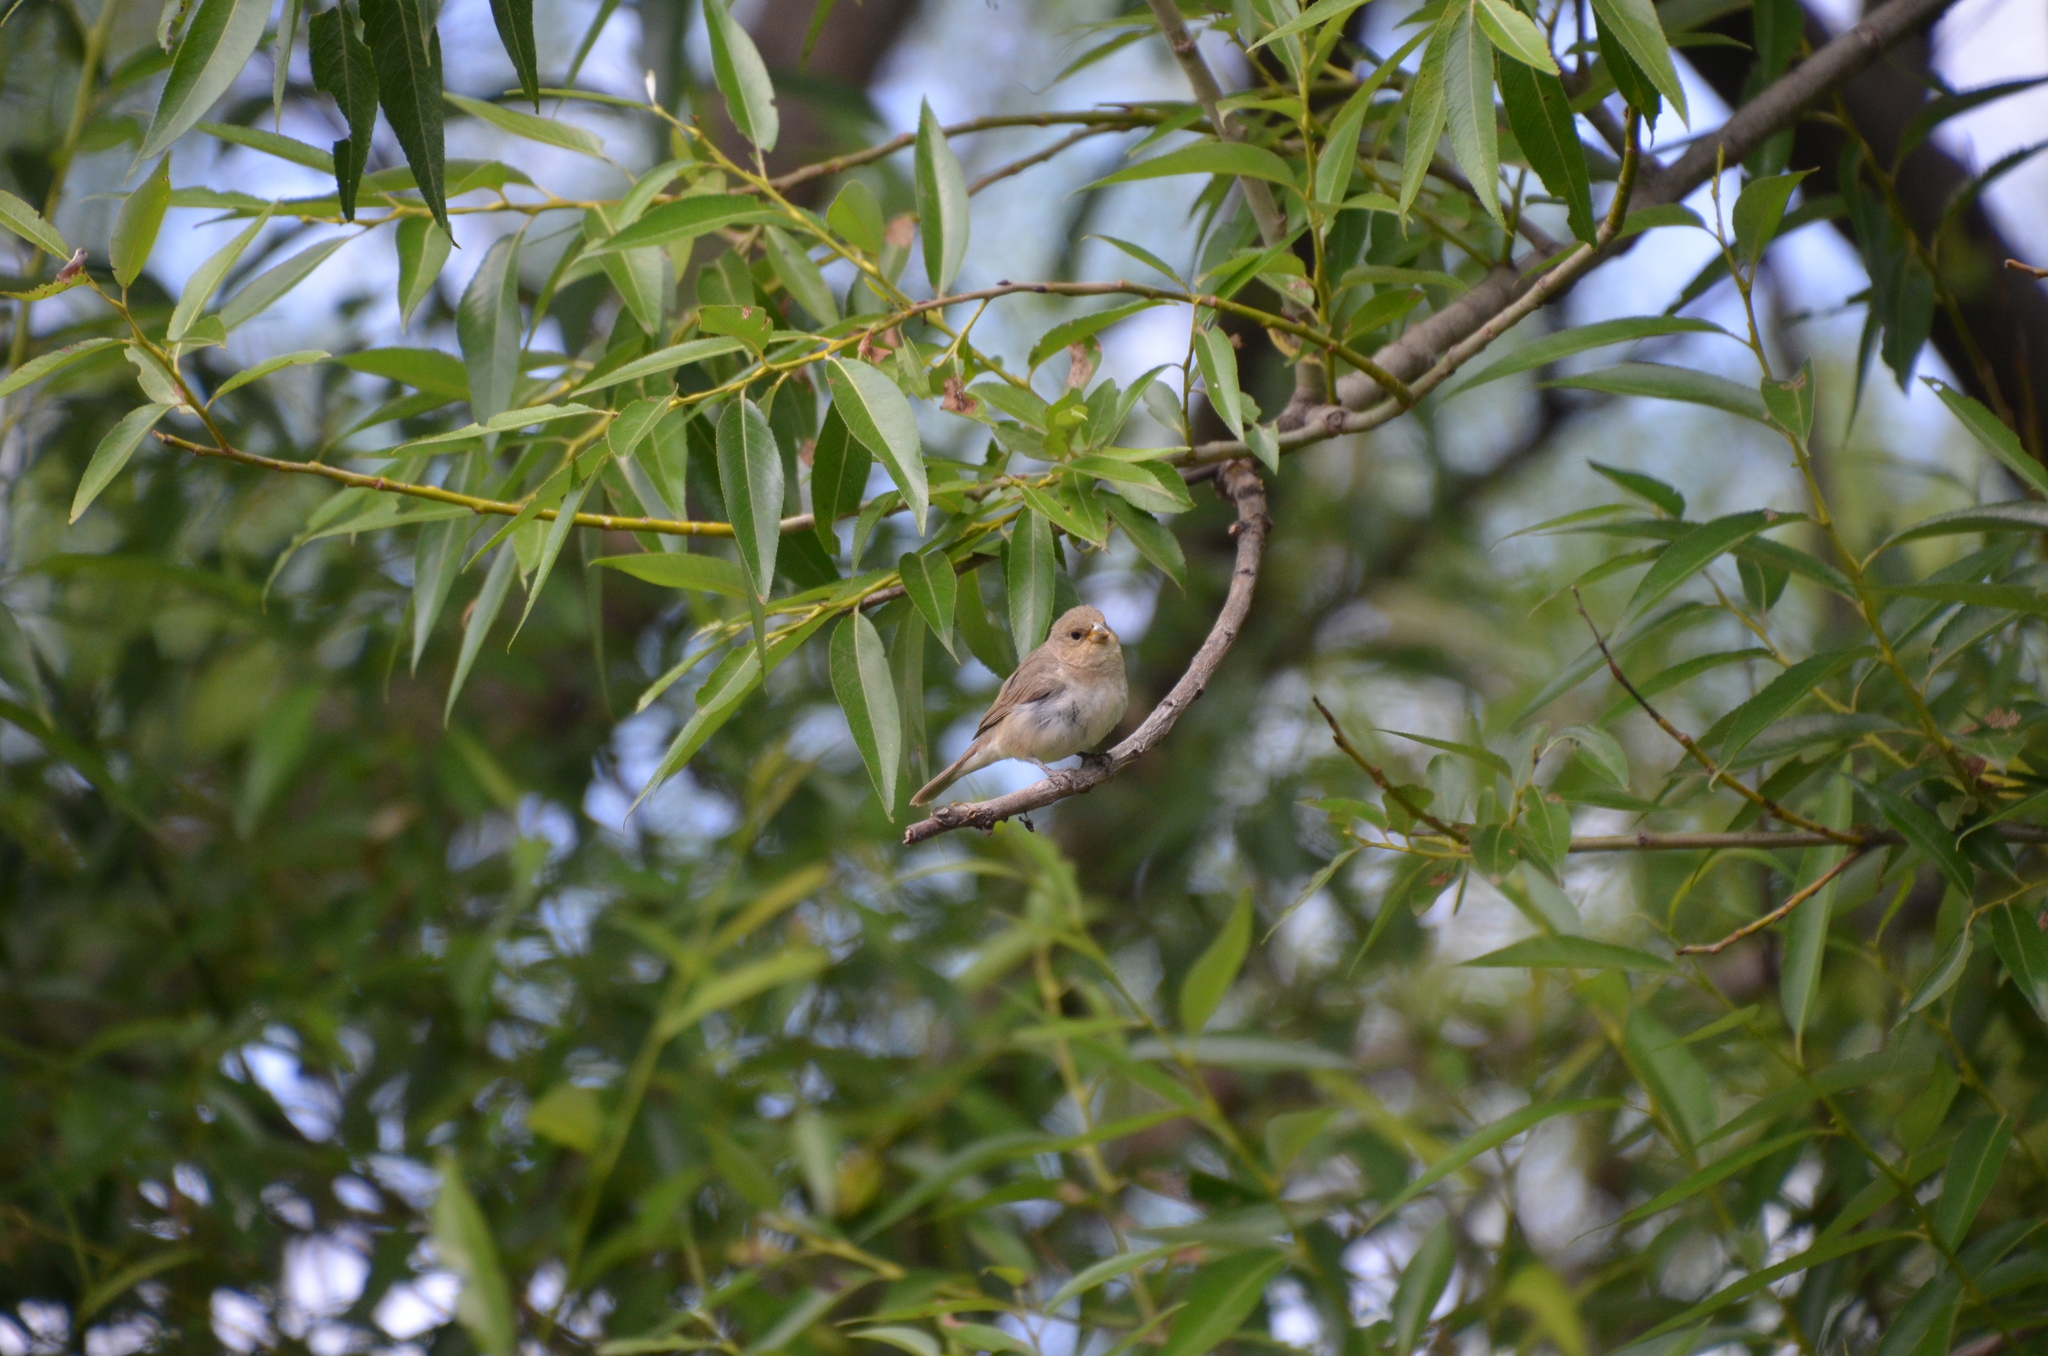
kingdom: Animalia
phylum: Chordata
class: Aves
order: Passeriformes
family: Thraupidae
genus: Sporophila
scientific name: Sporophila caerulescens
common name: Double-collared seedeater
